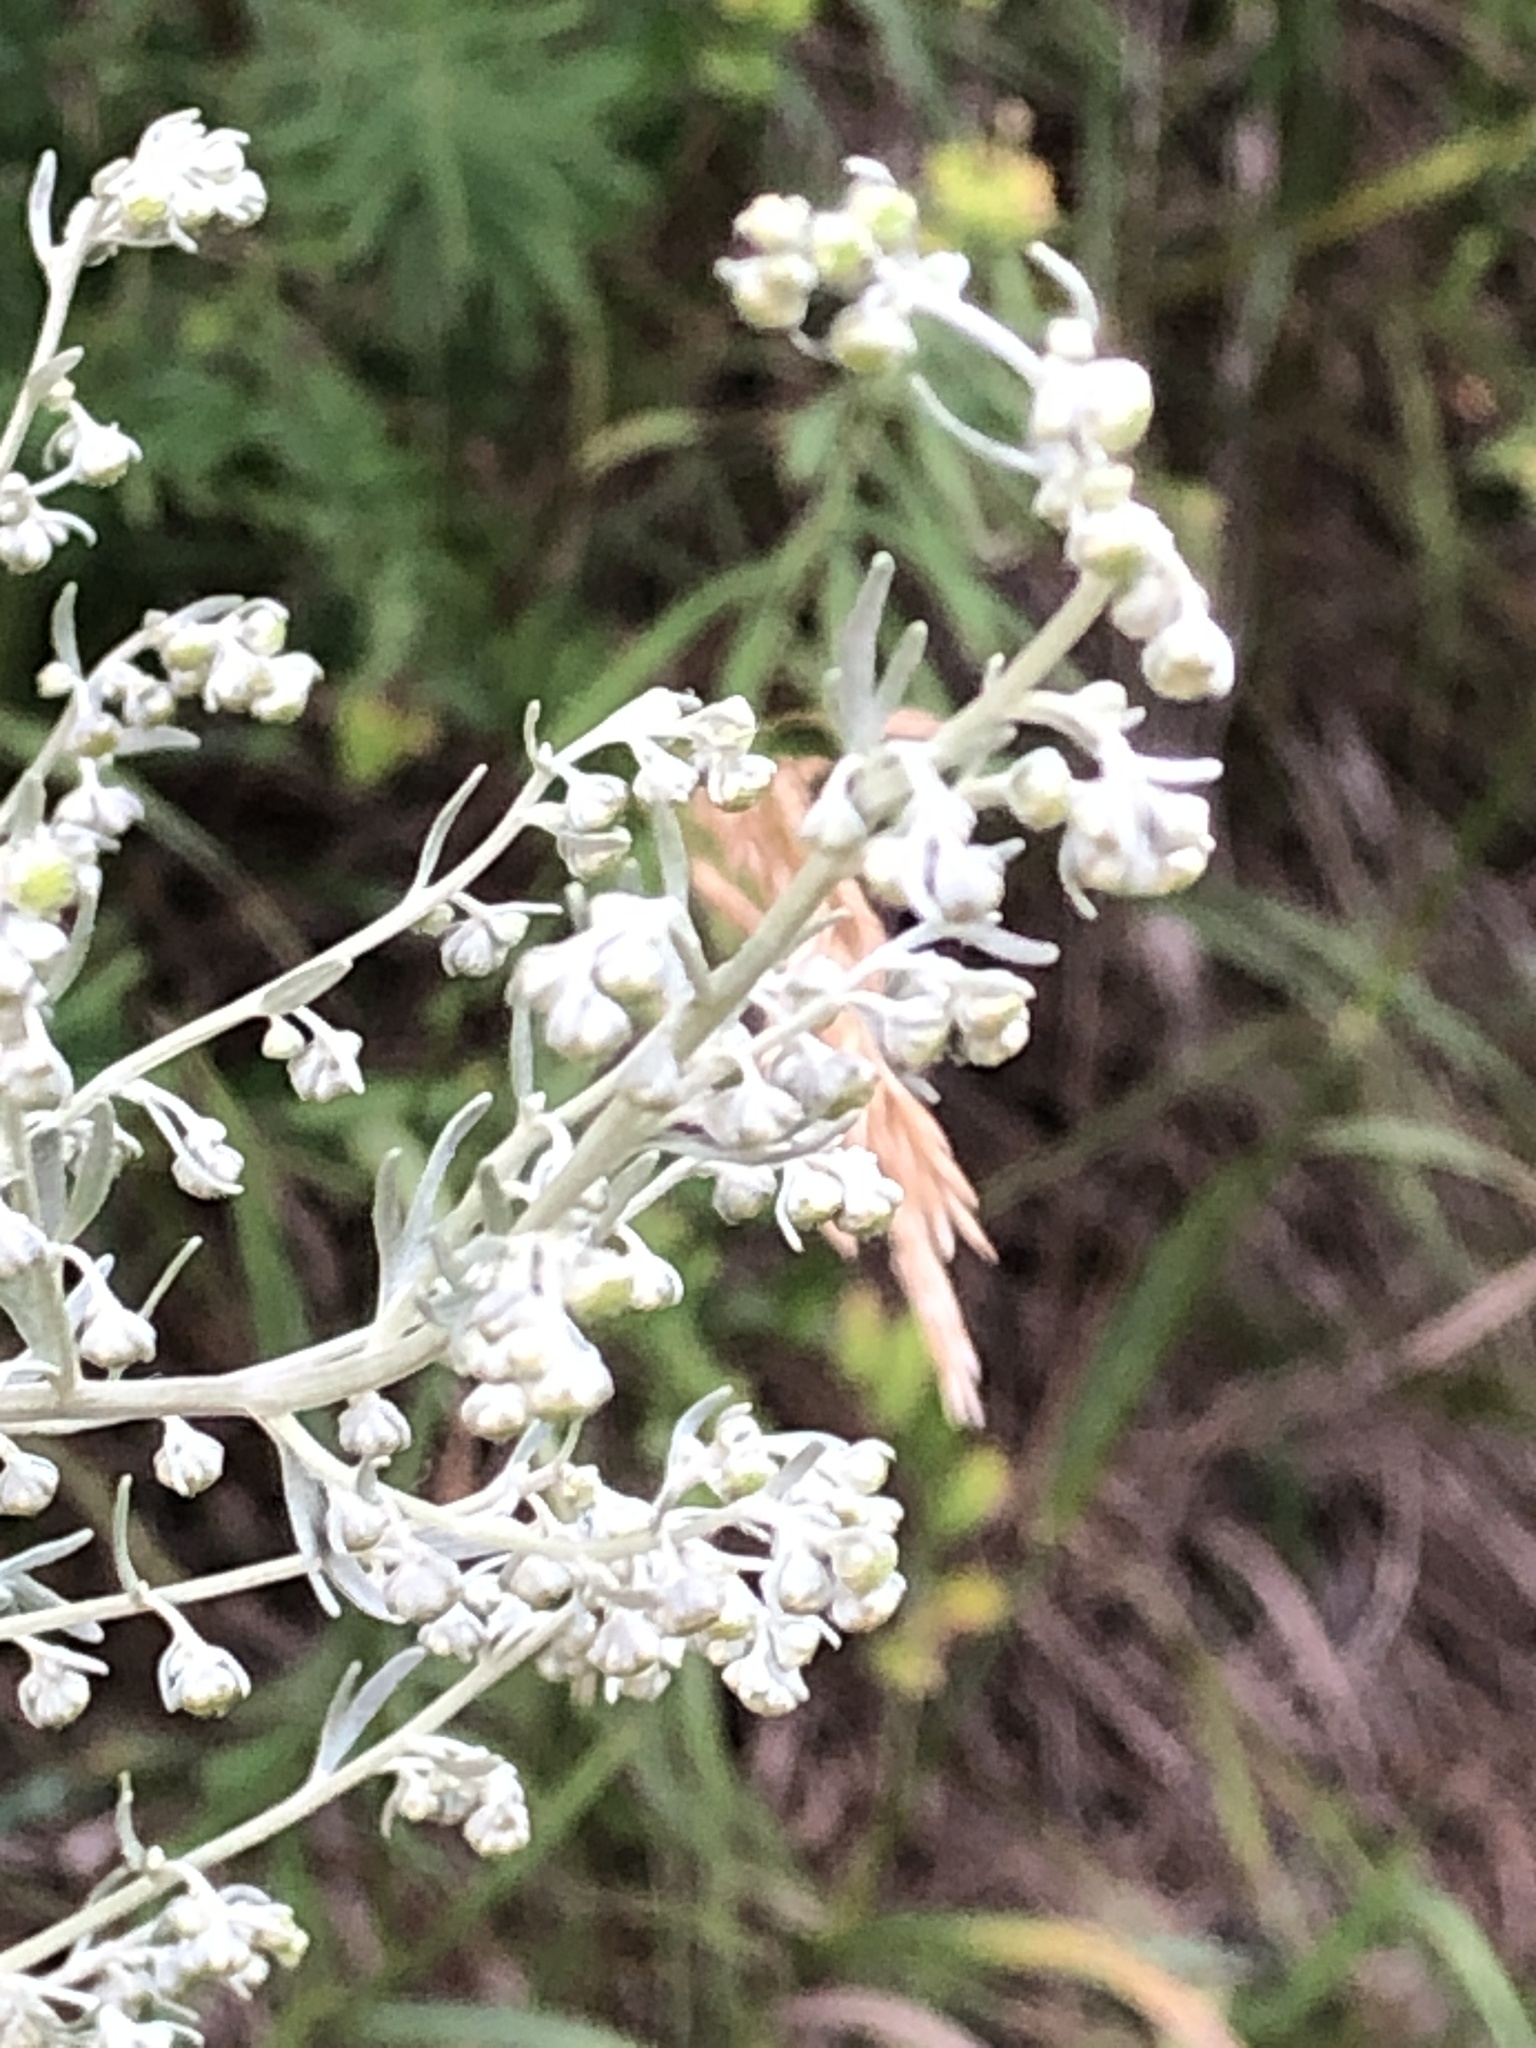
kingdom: Plantae
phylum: Tracheophyta
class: Magnoliopsida
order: Asterales
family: Asteraceae
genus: Artemisia
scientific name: Artemisia absinthium
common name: Wormwood
